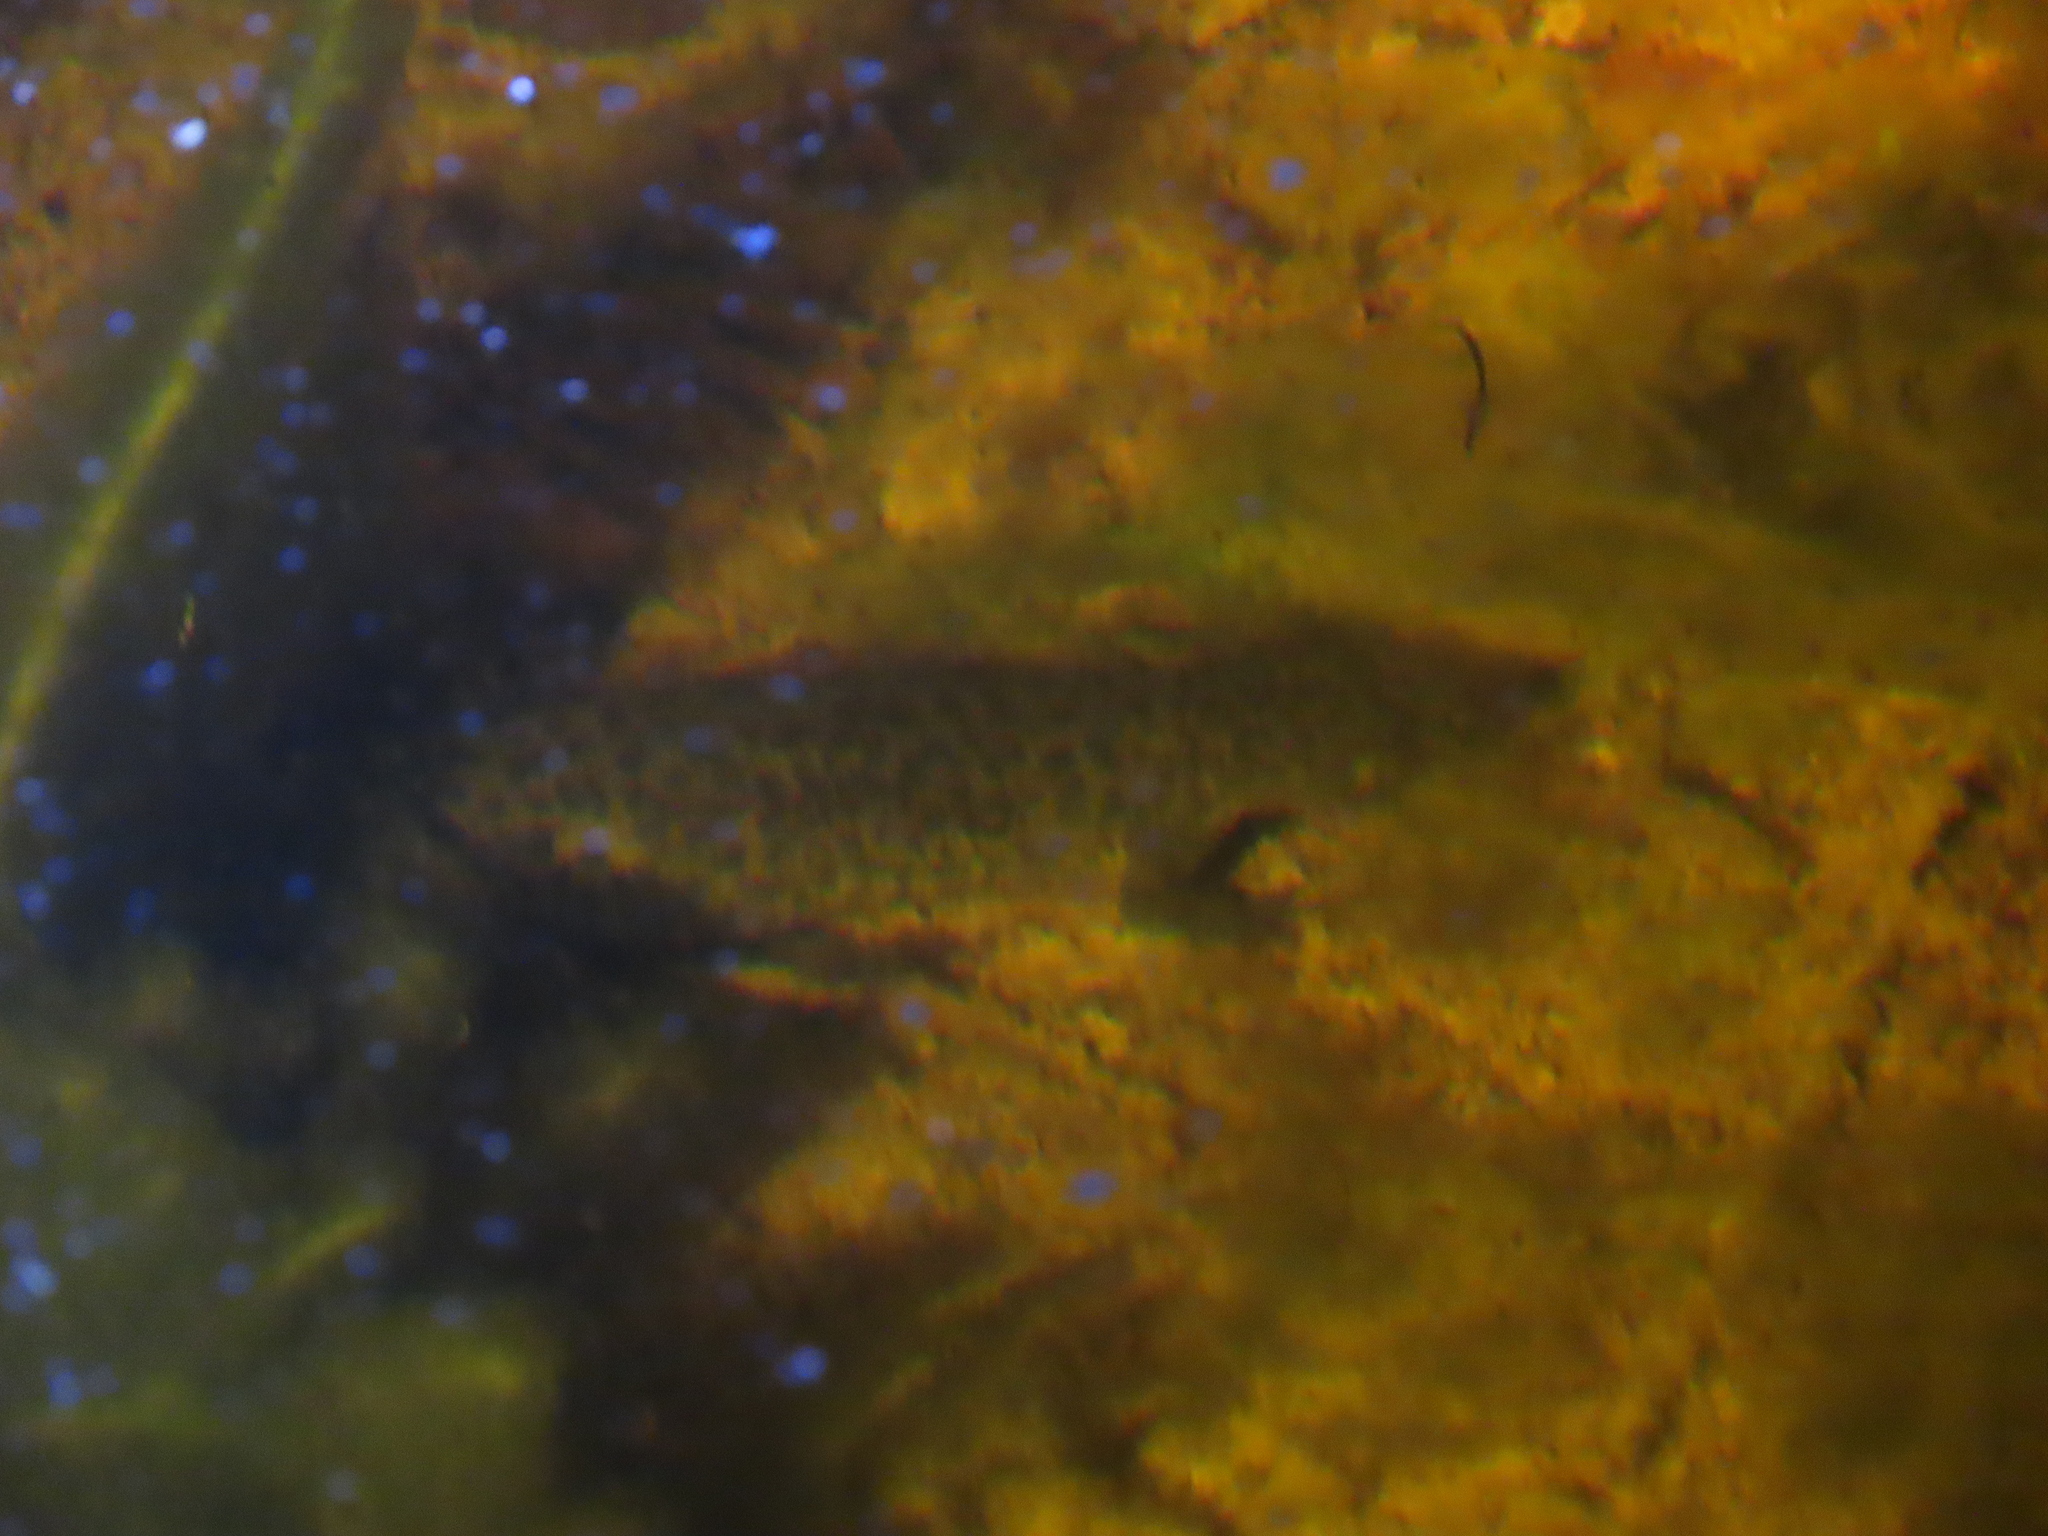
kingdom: Animalia
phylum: Chordata
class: Amphibia
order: Caudata
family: Salamandridae
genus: Pleurodeles
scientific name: Pleurodeles waltl
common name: Iberian ribbed newt
